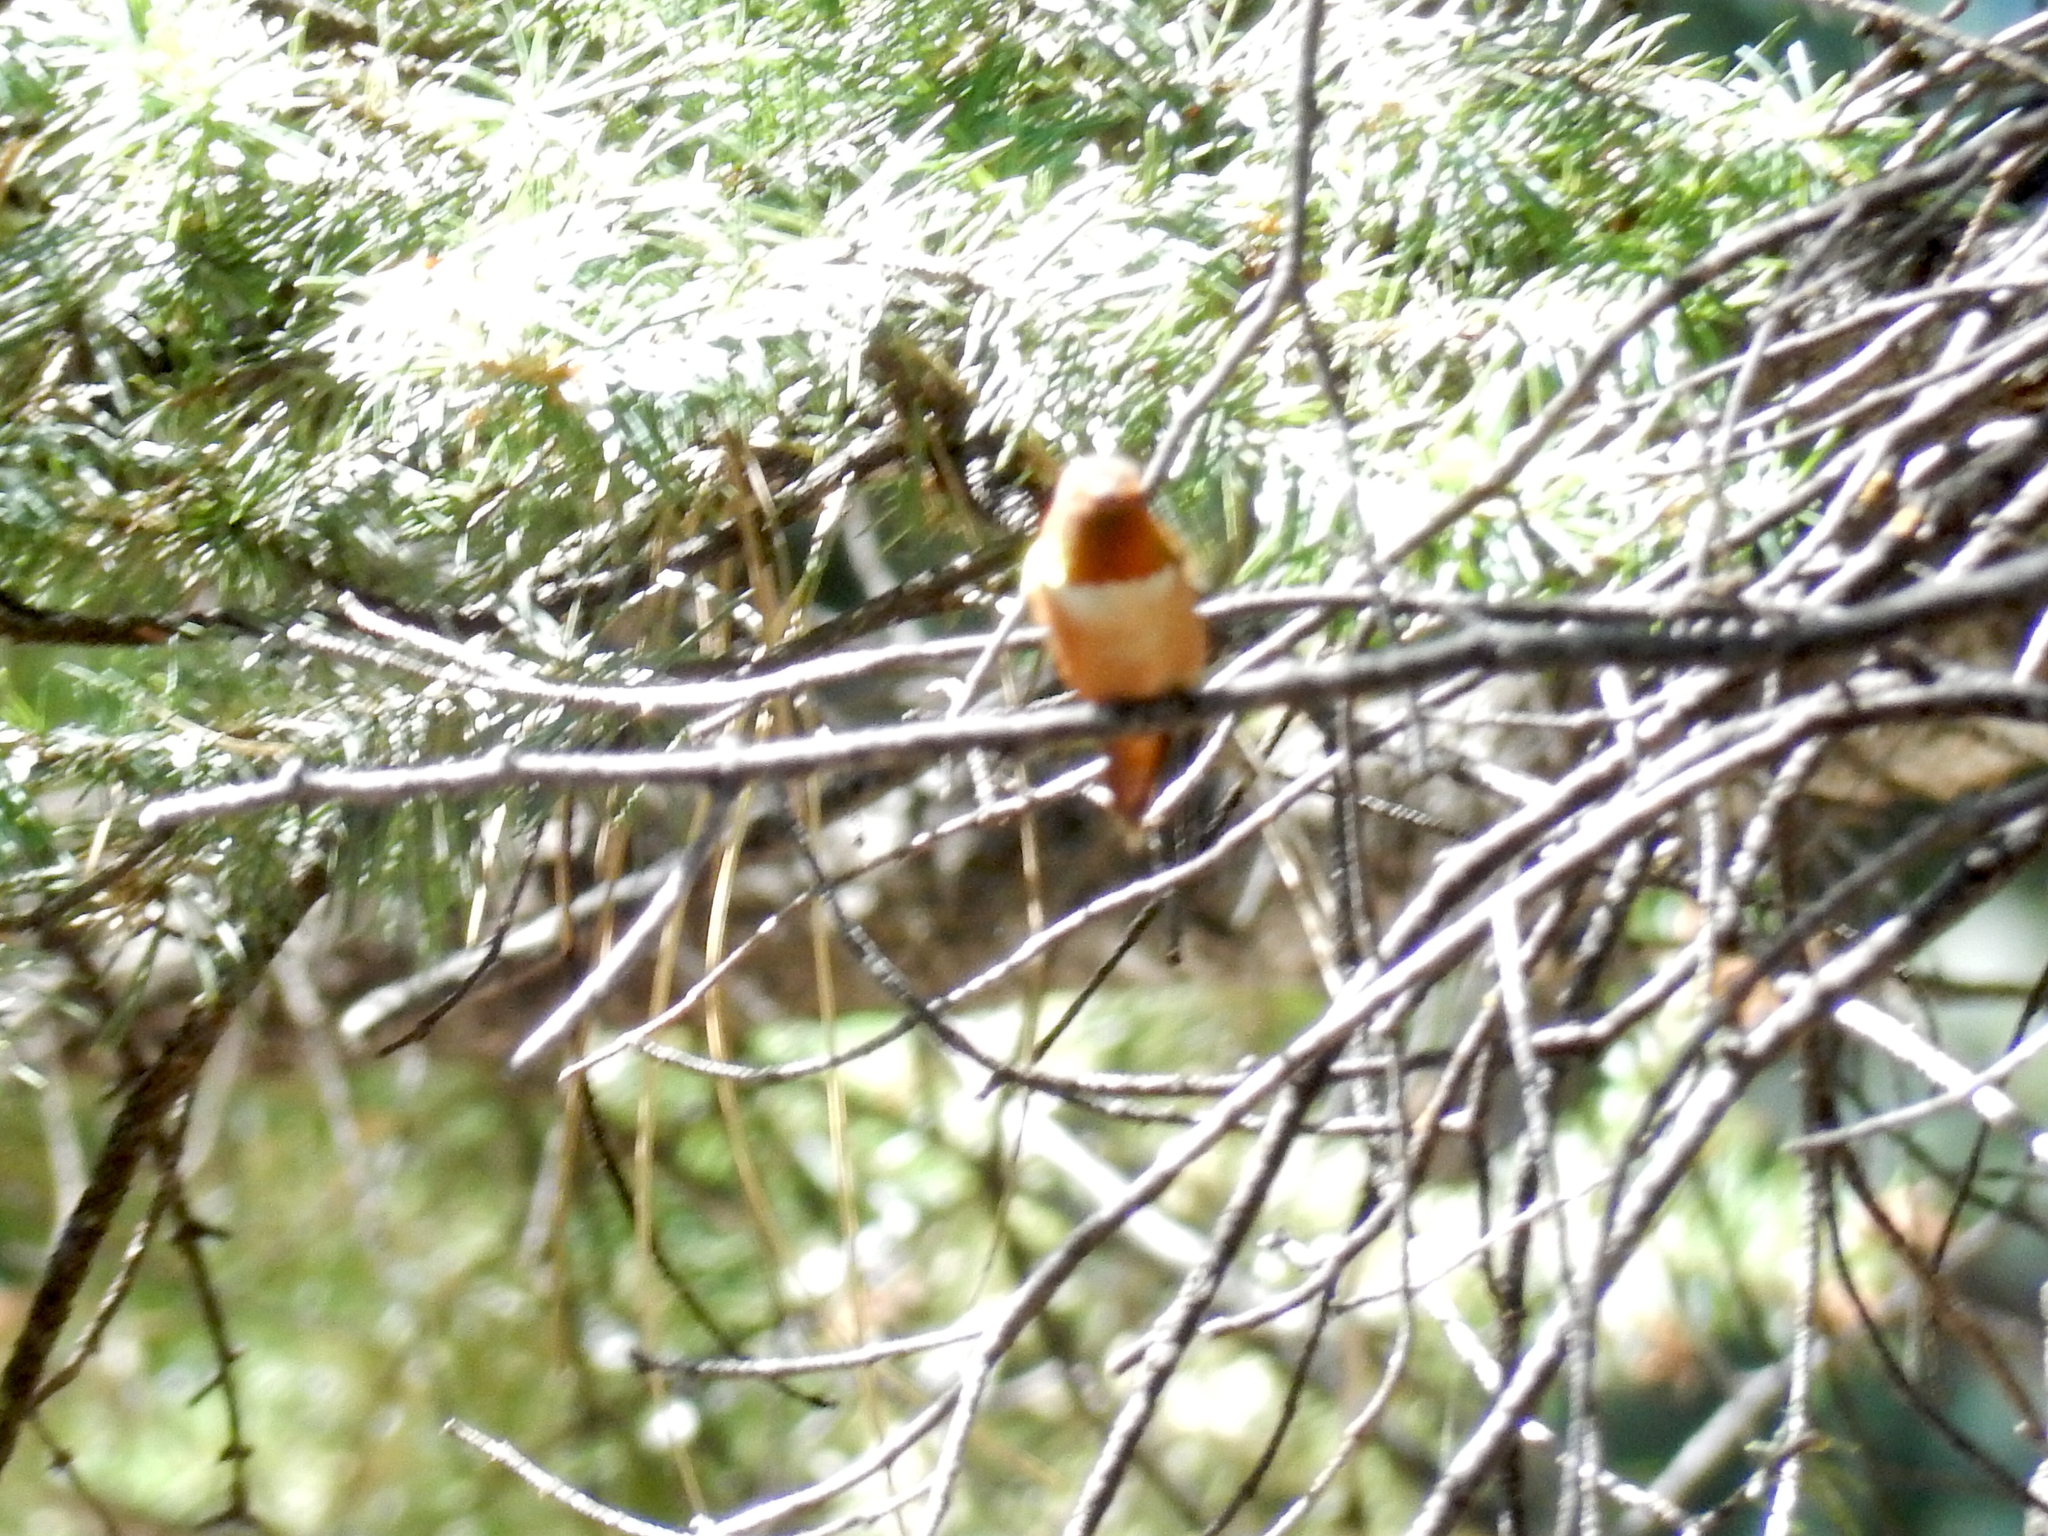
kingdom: Animalia
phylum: Chordata
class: Aves
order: Apodiformes
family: Trochilidae
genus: Selasphorus
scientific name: Selasphorus rufus
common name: Rufous hummingbird
